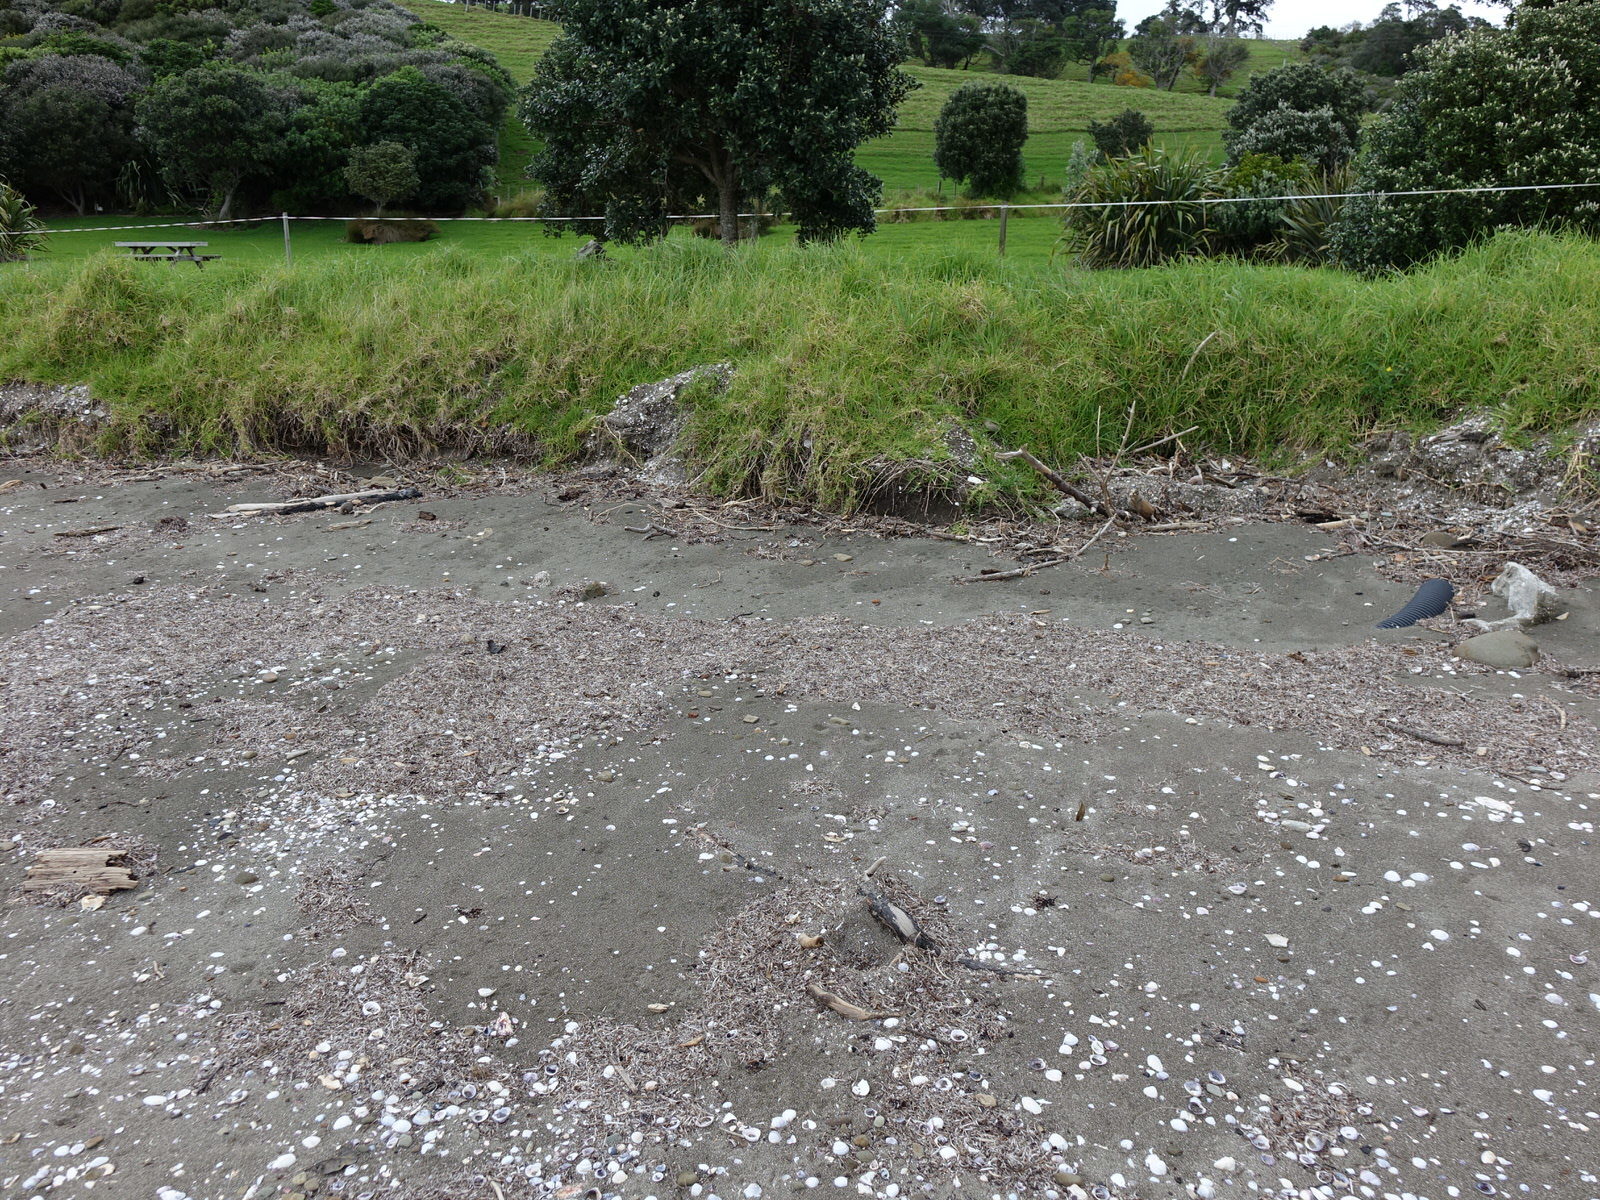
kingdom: Animalia
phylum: Chordata
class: Aves
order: Charadriiformes
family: Charadriidae
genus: Anarhynchus
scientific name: Anarhynchus
